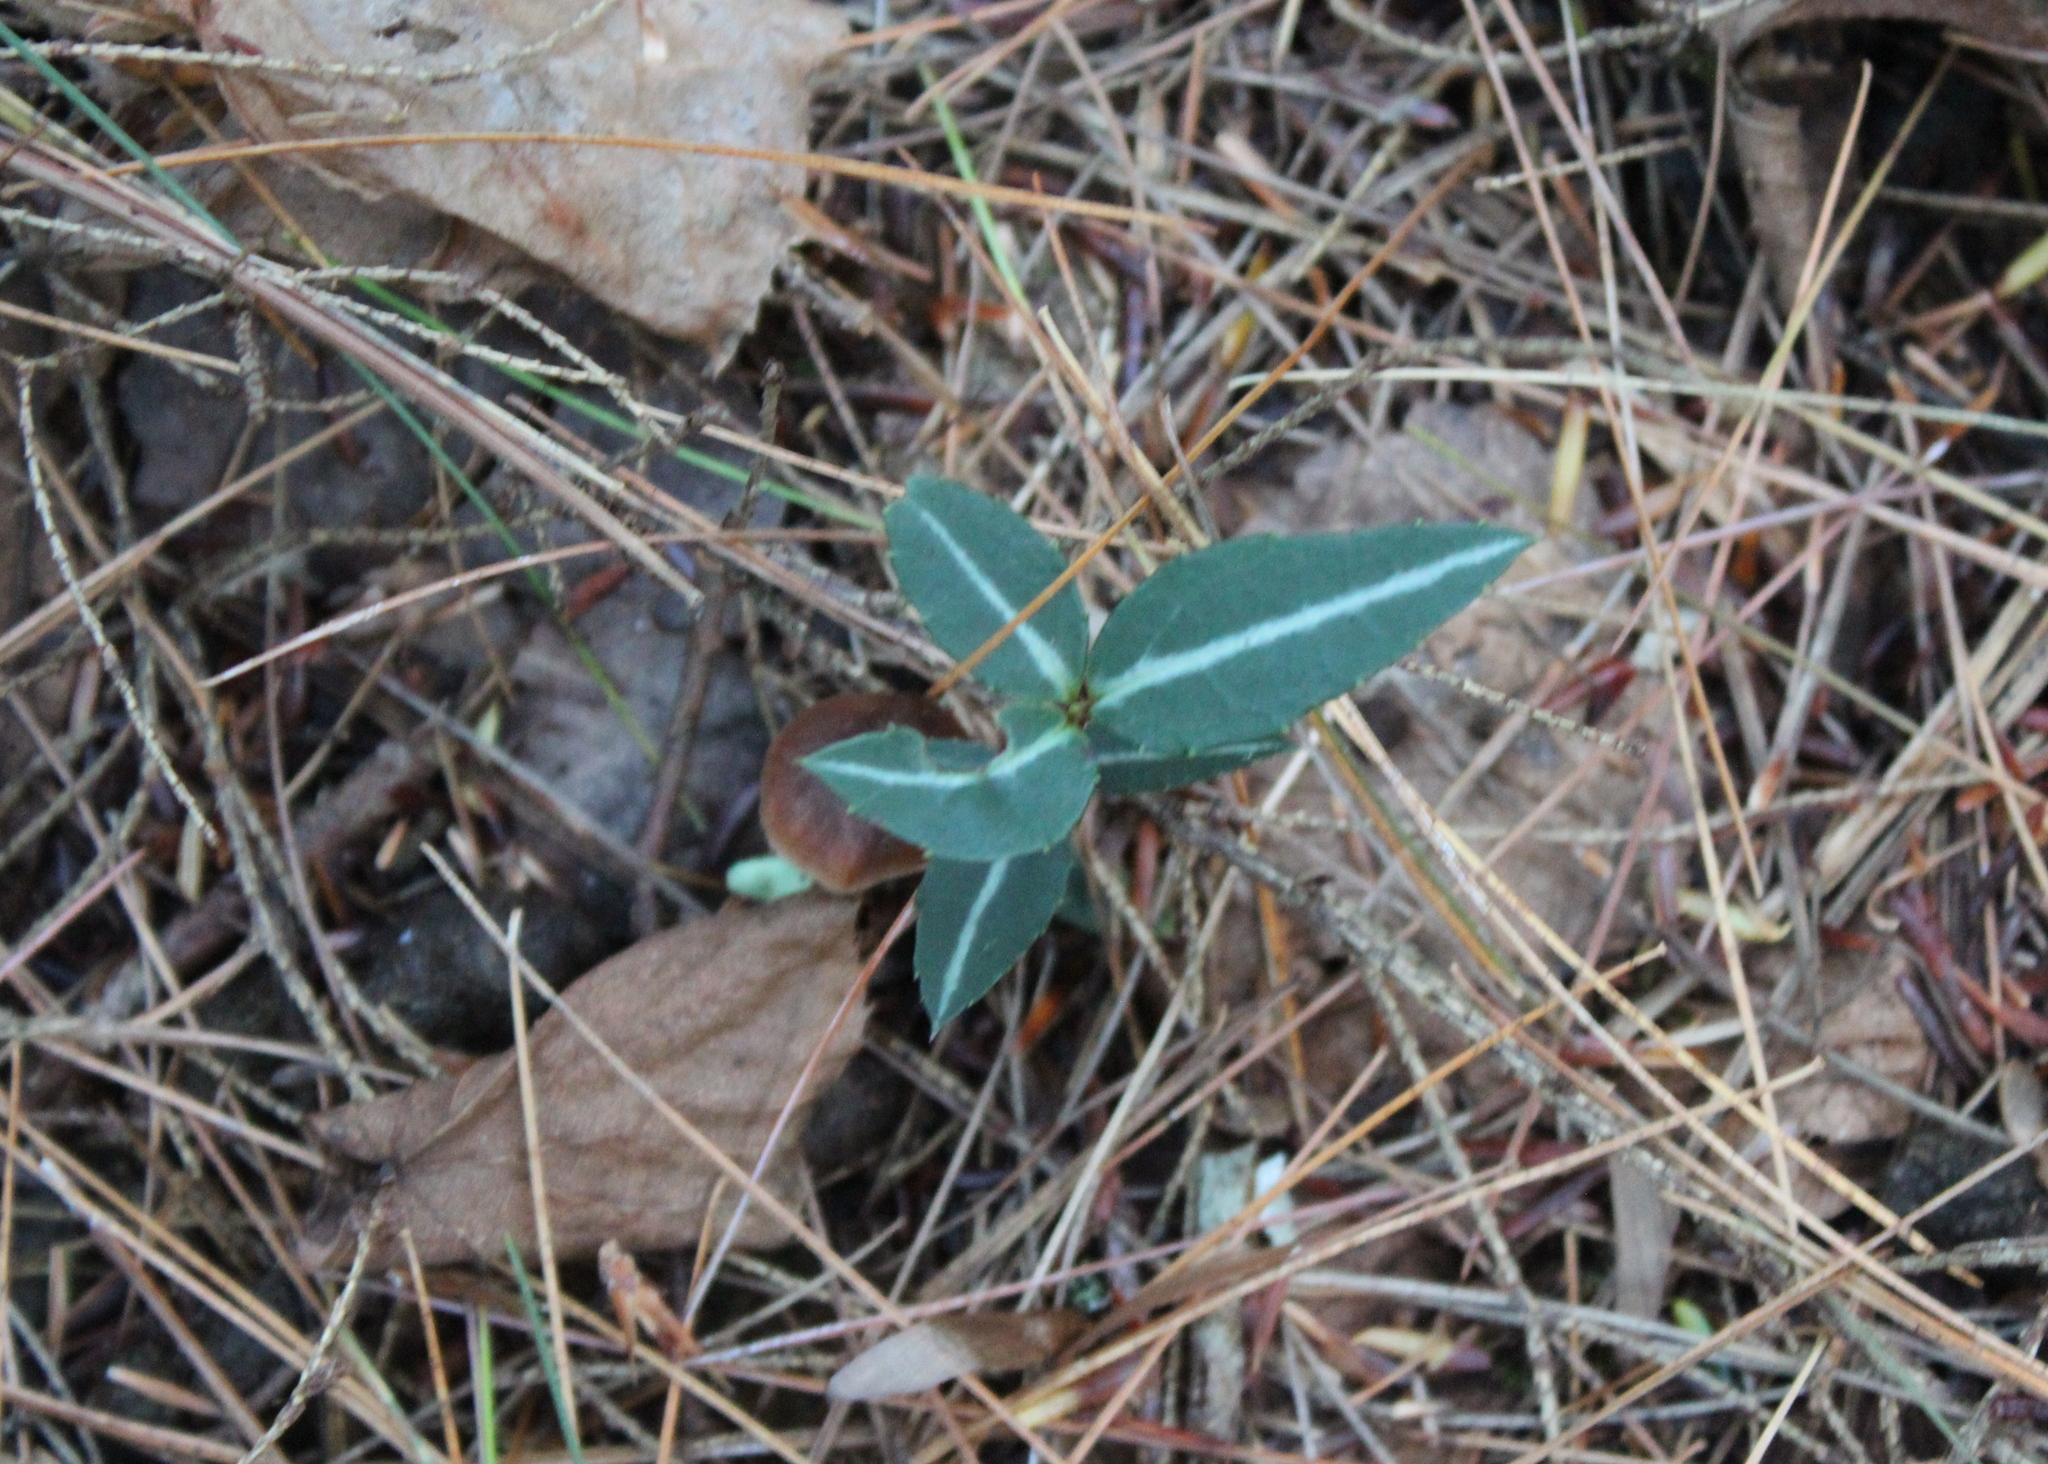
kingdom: Plantae
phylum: Tracheophyta
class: Magnoliopsida
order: Ericales
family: Ericaceae
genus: Chimaphila
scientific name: Chimaphila maculata
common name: Spotted pipsissewa
